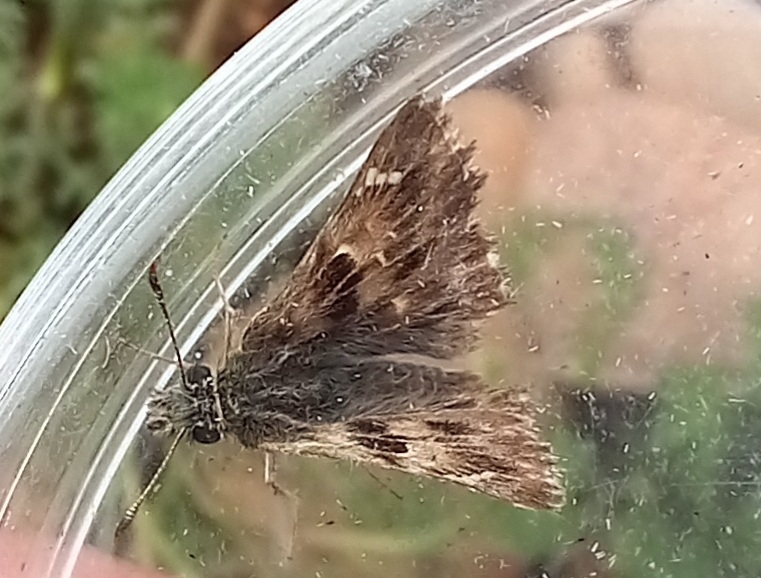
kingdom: Animalia
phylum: Arthropoda
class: Insecta
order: Lepidoptera
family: Hesperiidae
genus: Carcharodus
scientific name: Carcharodus alceae
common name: Mallow skipper
